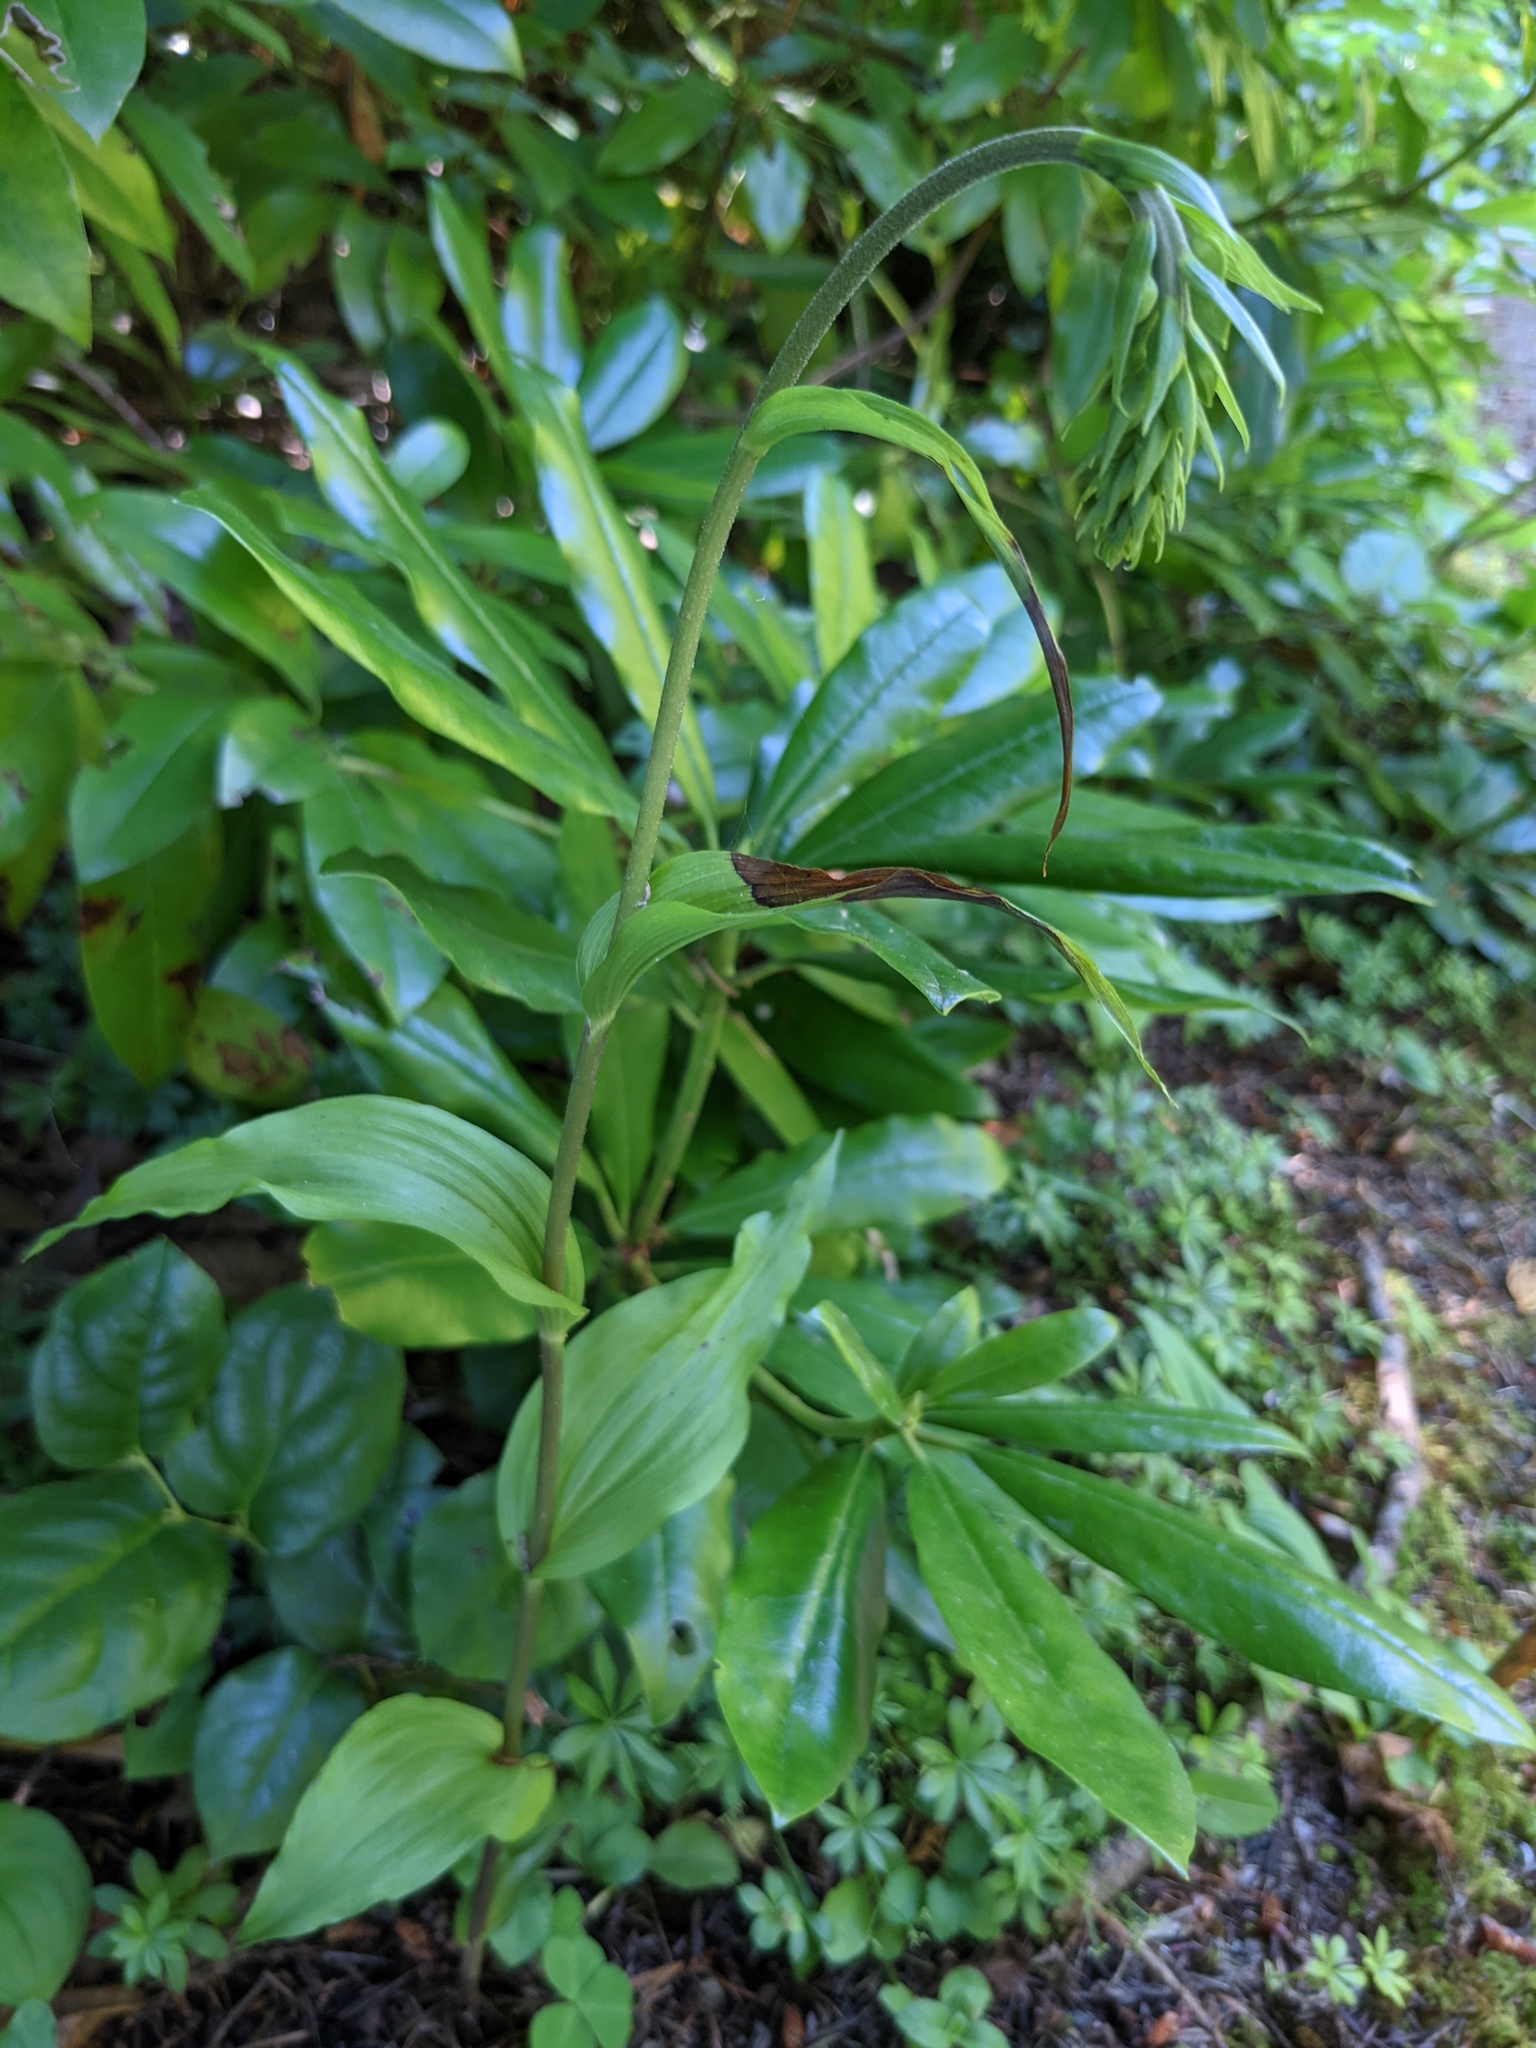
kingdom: Plantae
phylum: Tracheophyta
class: Liliopsida
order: Asparagales
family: Orchidaceae
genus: Epipactis
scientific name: Epipactis helleborine
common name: Broad-leaved helleborine
